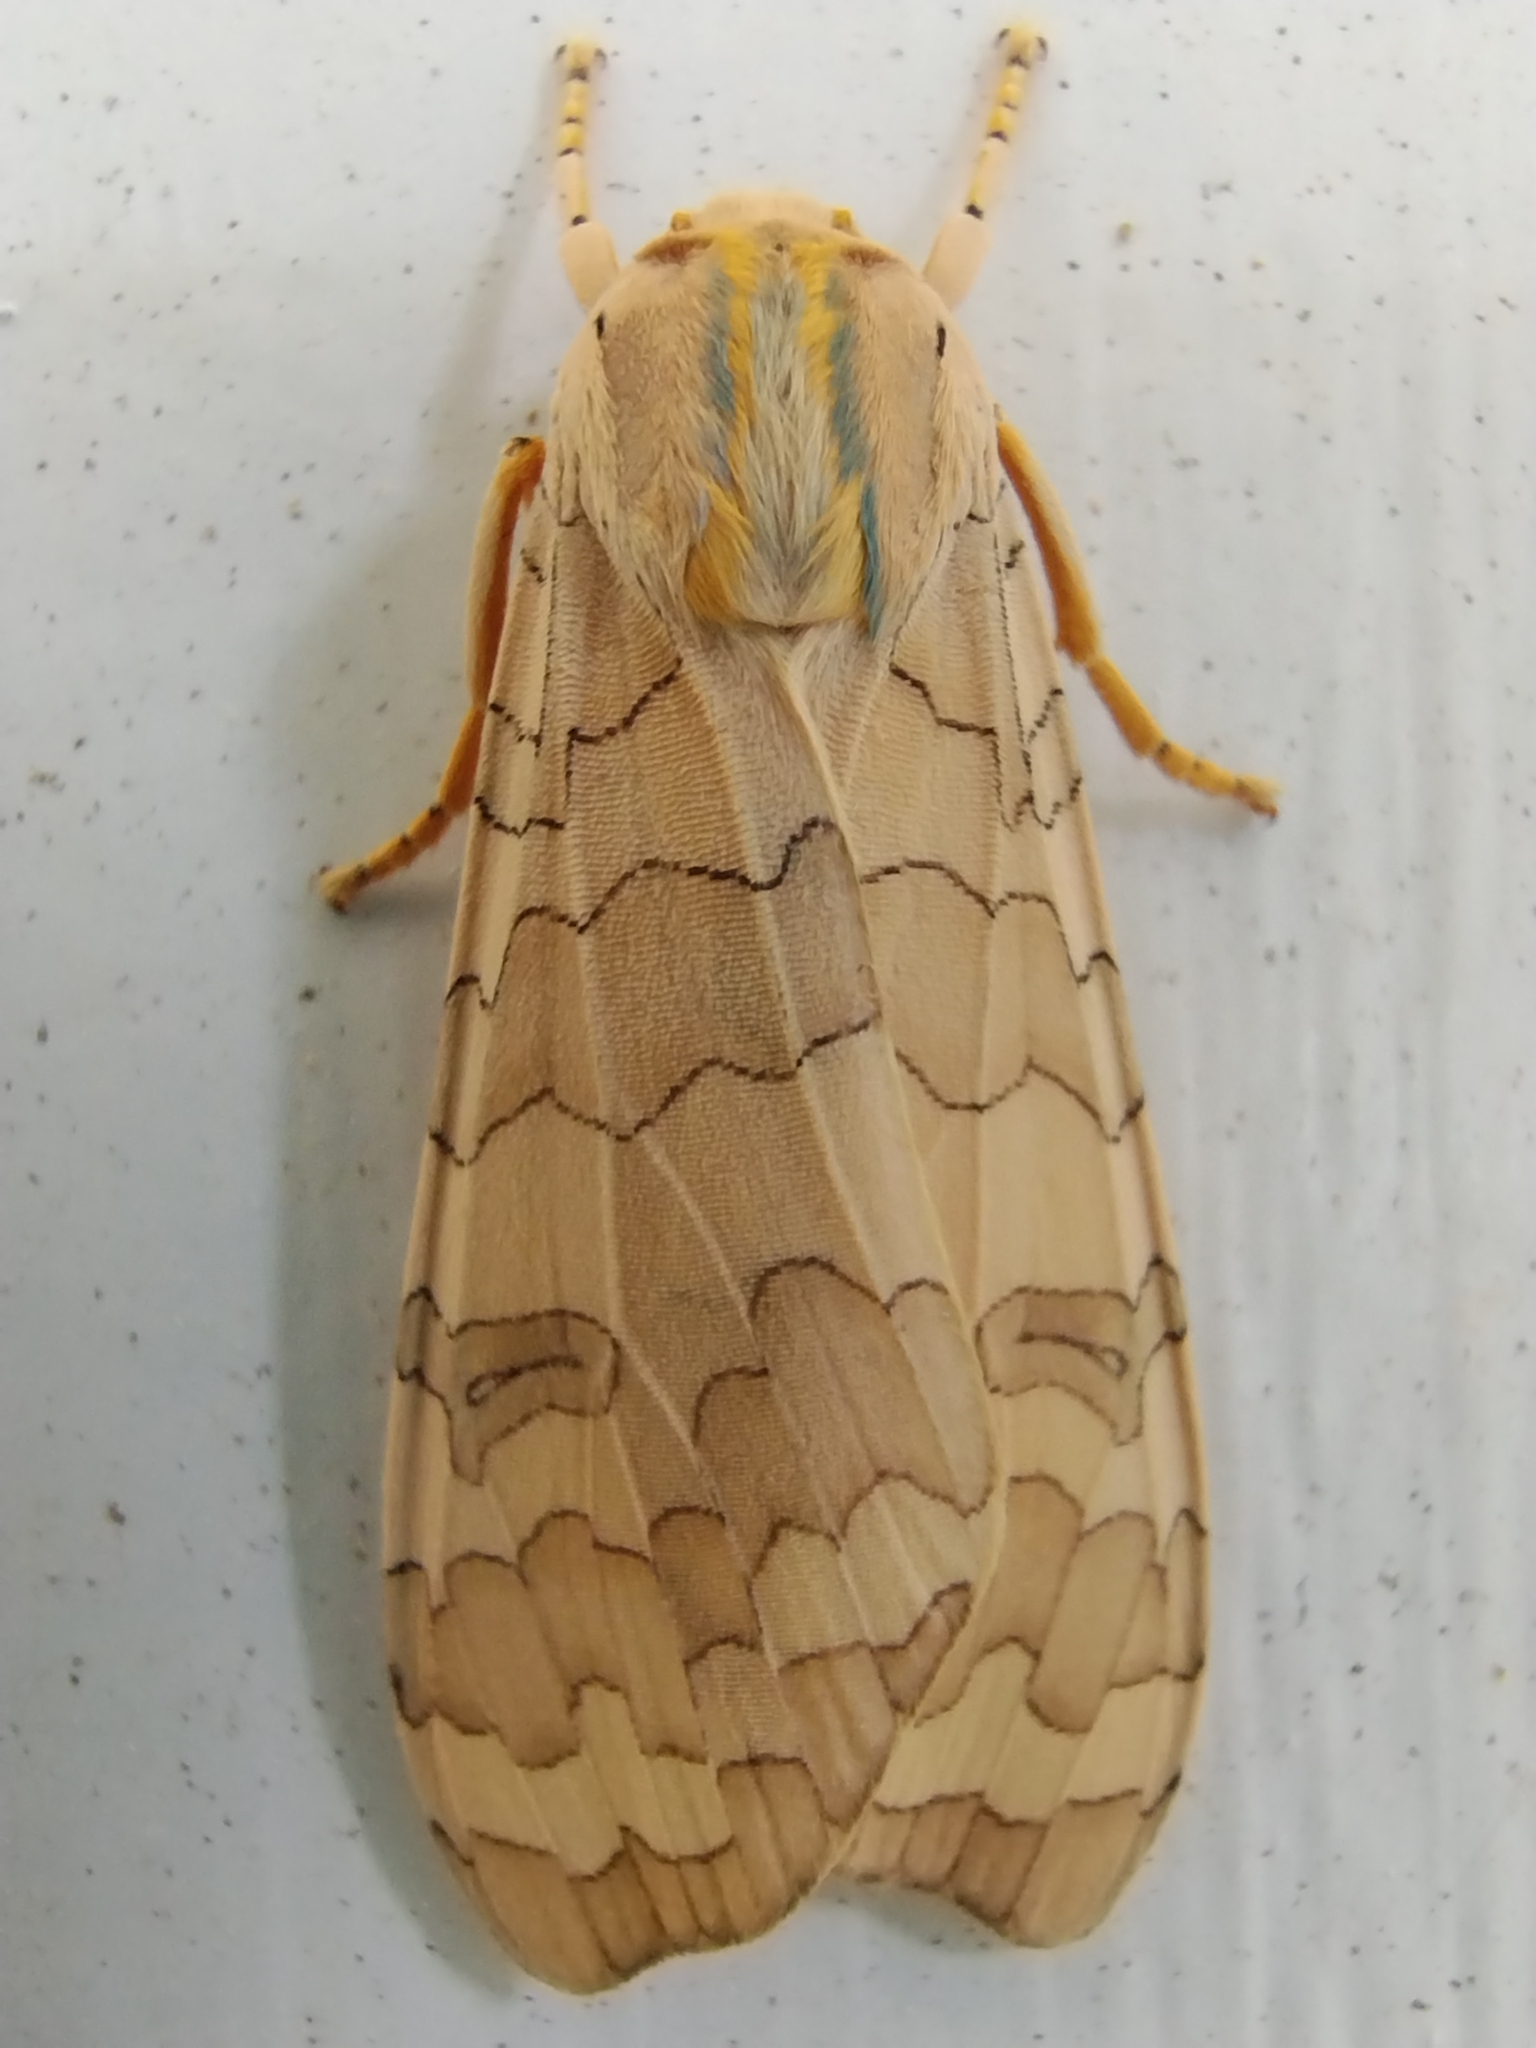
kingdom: Animalia
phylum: Arthropoda
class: Insecta
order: Lepidoptera
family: Erebidae
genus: Halysidota
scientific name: Halysidota tessellaris
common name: Banded tussock moth
